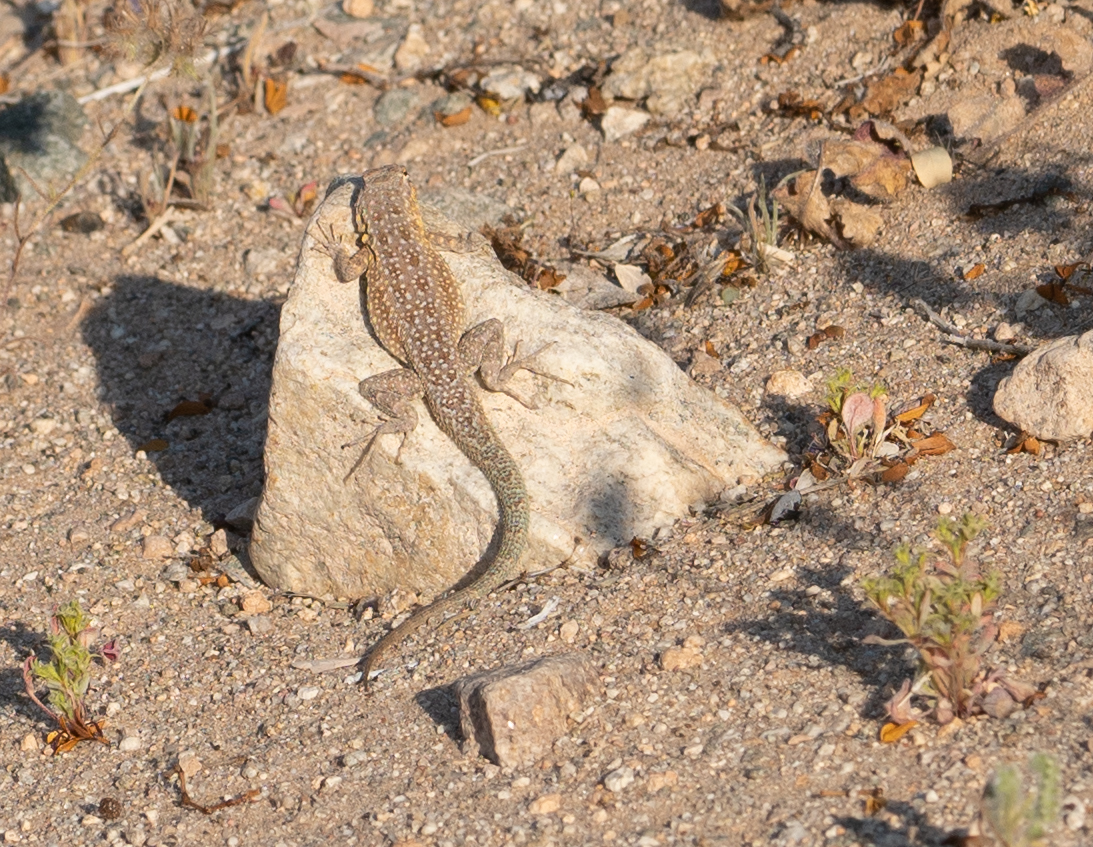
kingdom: Animalia
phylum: Chordata
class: Squamata
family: Phrynosomatidae
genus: Uta
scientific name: Uta stansburiana
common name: Side-blotched lizard
